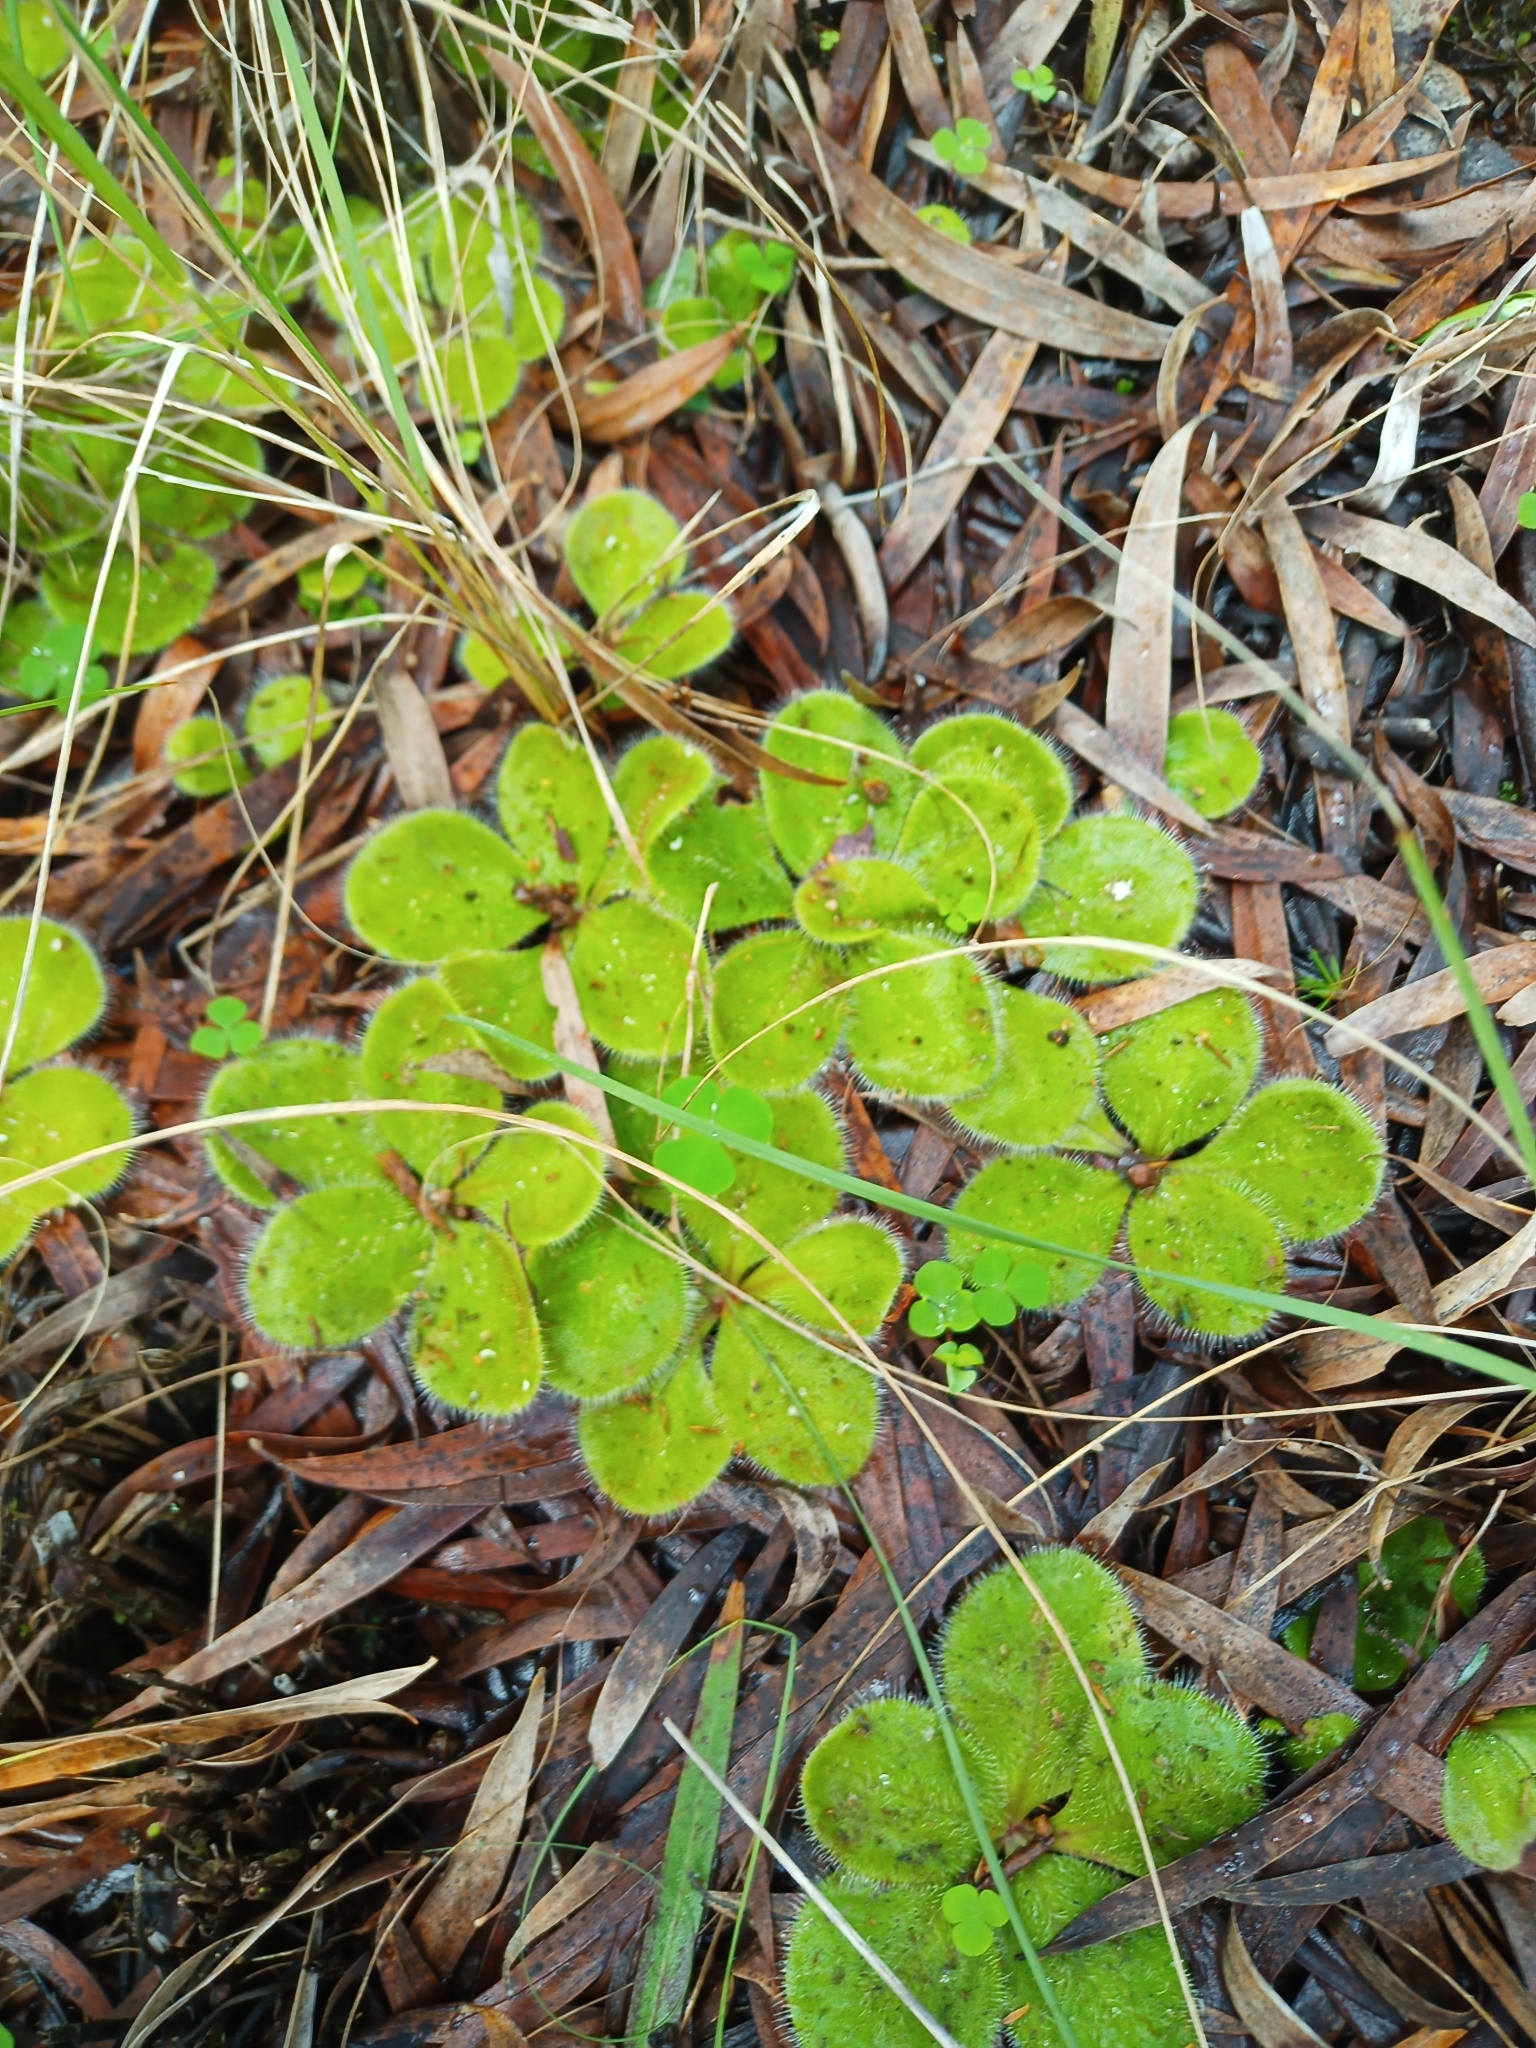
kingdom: Plantae
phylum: Tracheophyta
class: Magnoliopsida
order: Caryophyllales
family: Droseraceae
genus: Drosera
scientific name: Drosera erythrorhiza
